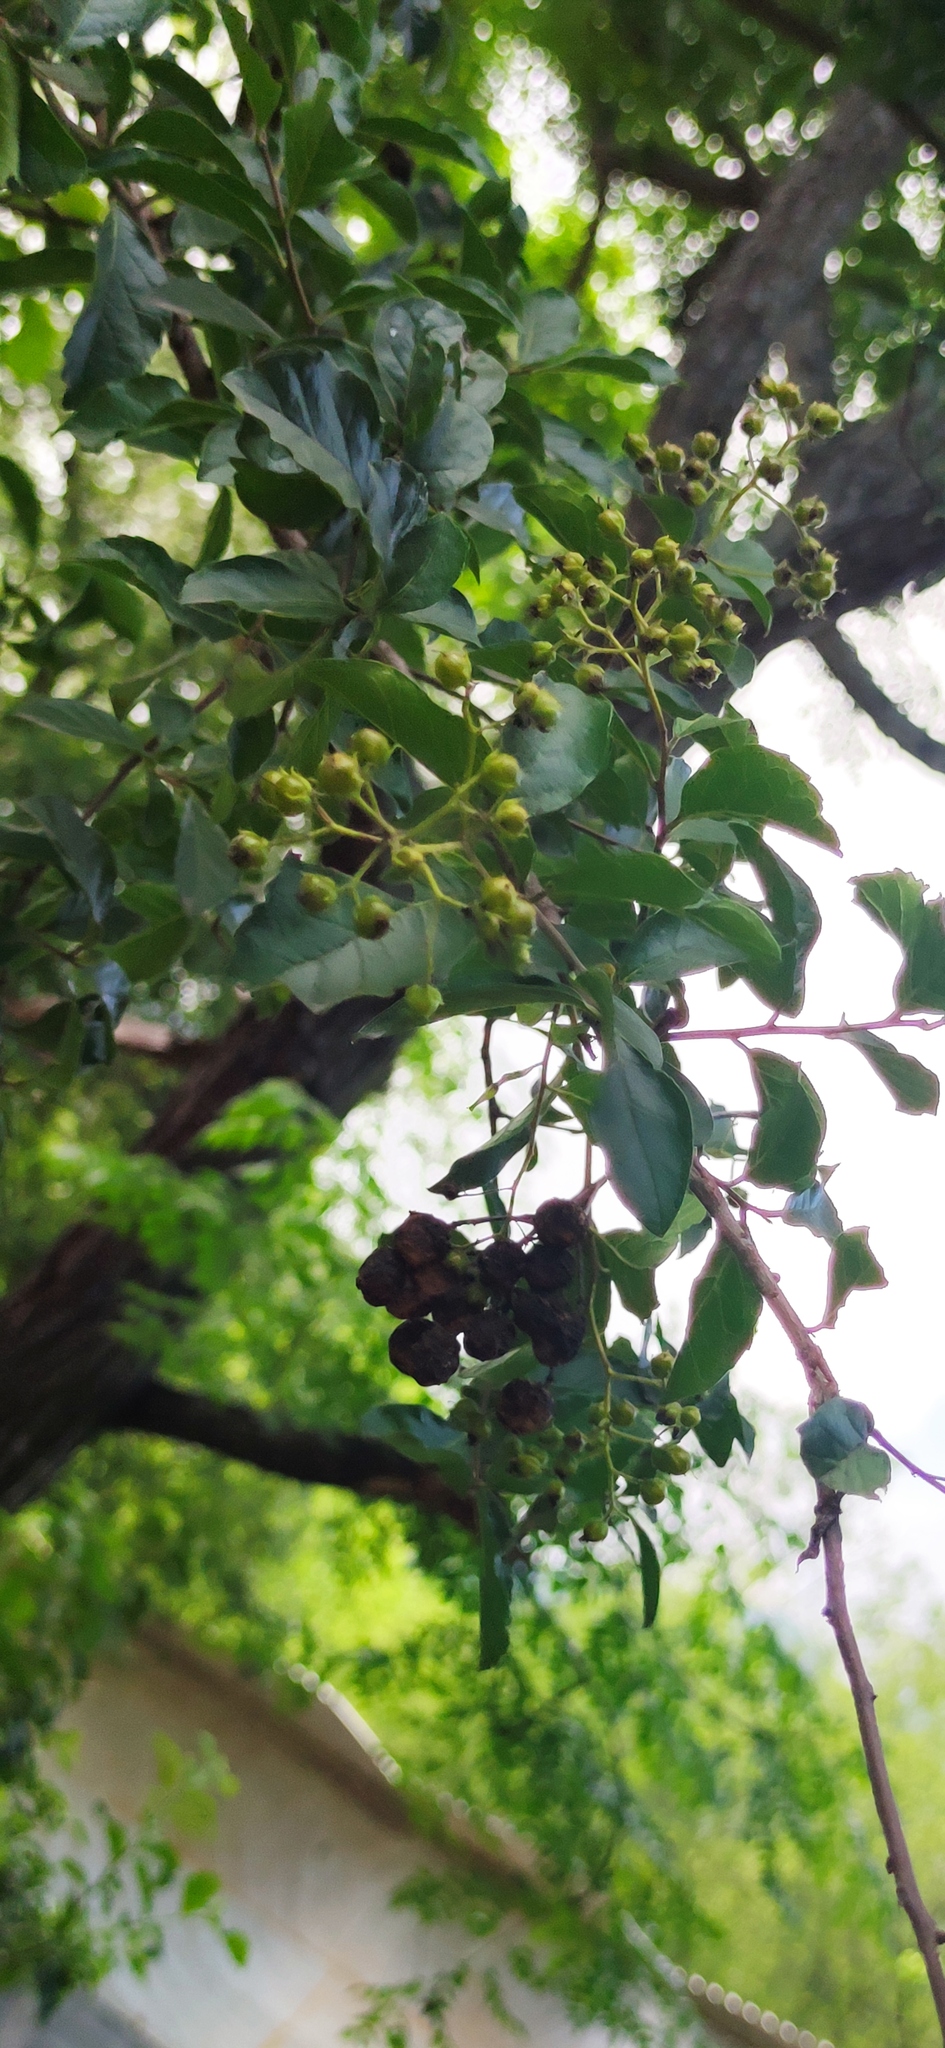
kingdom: Plantae
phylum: Tracheophyta
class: Magnoliopsida
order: Boraginales
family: Ehretiaceae
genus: Ehretia
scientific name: Ehretia anacua
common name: Sugarberry
